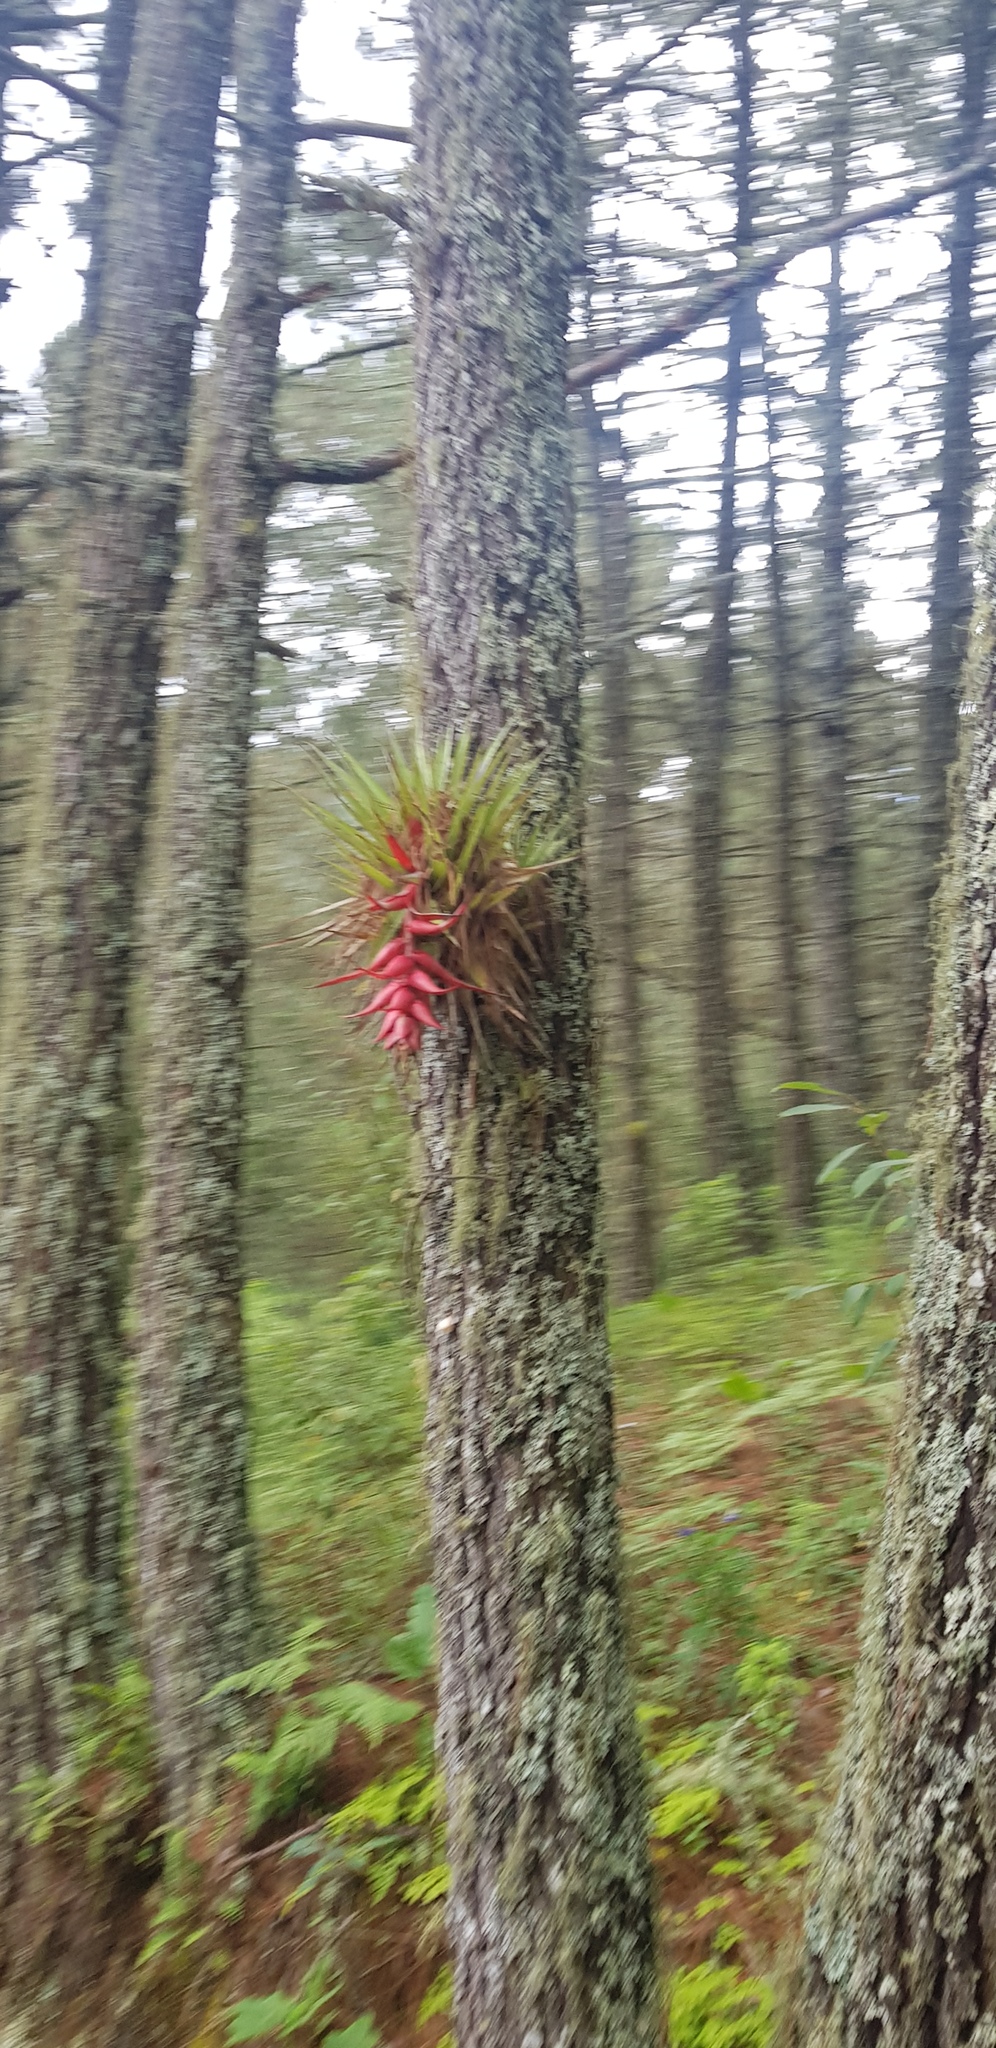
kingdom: Plantae
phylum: Tracheophyta
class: Liliopsida
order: Poales
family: Bromeliaceae
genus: Tillandsia
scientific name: Tillandsia violacea
